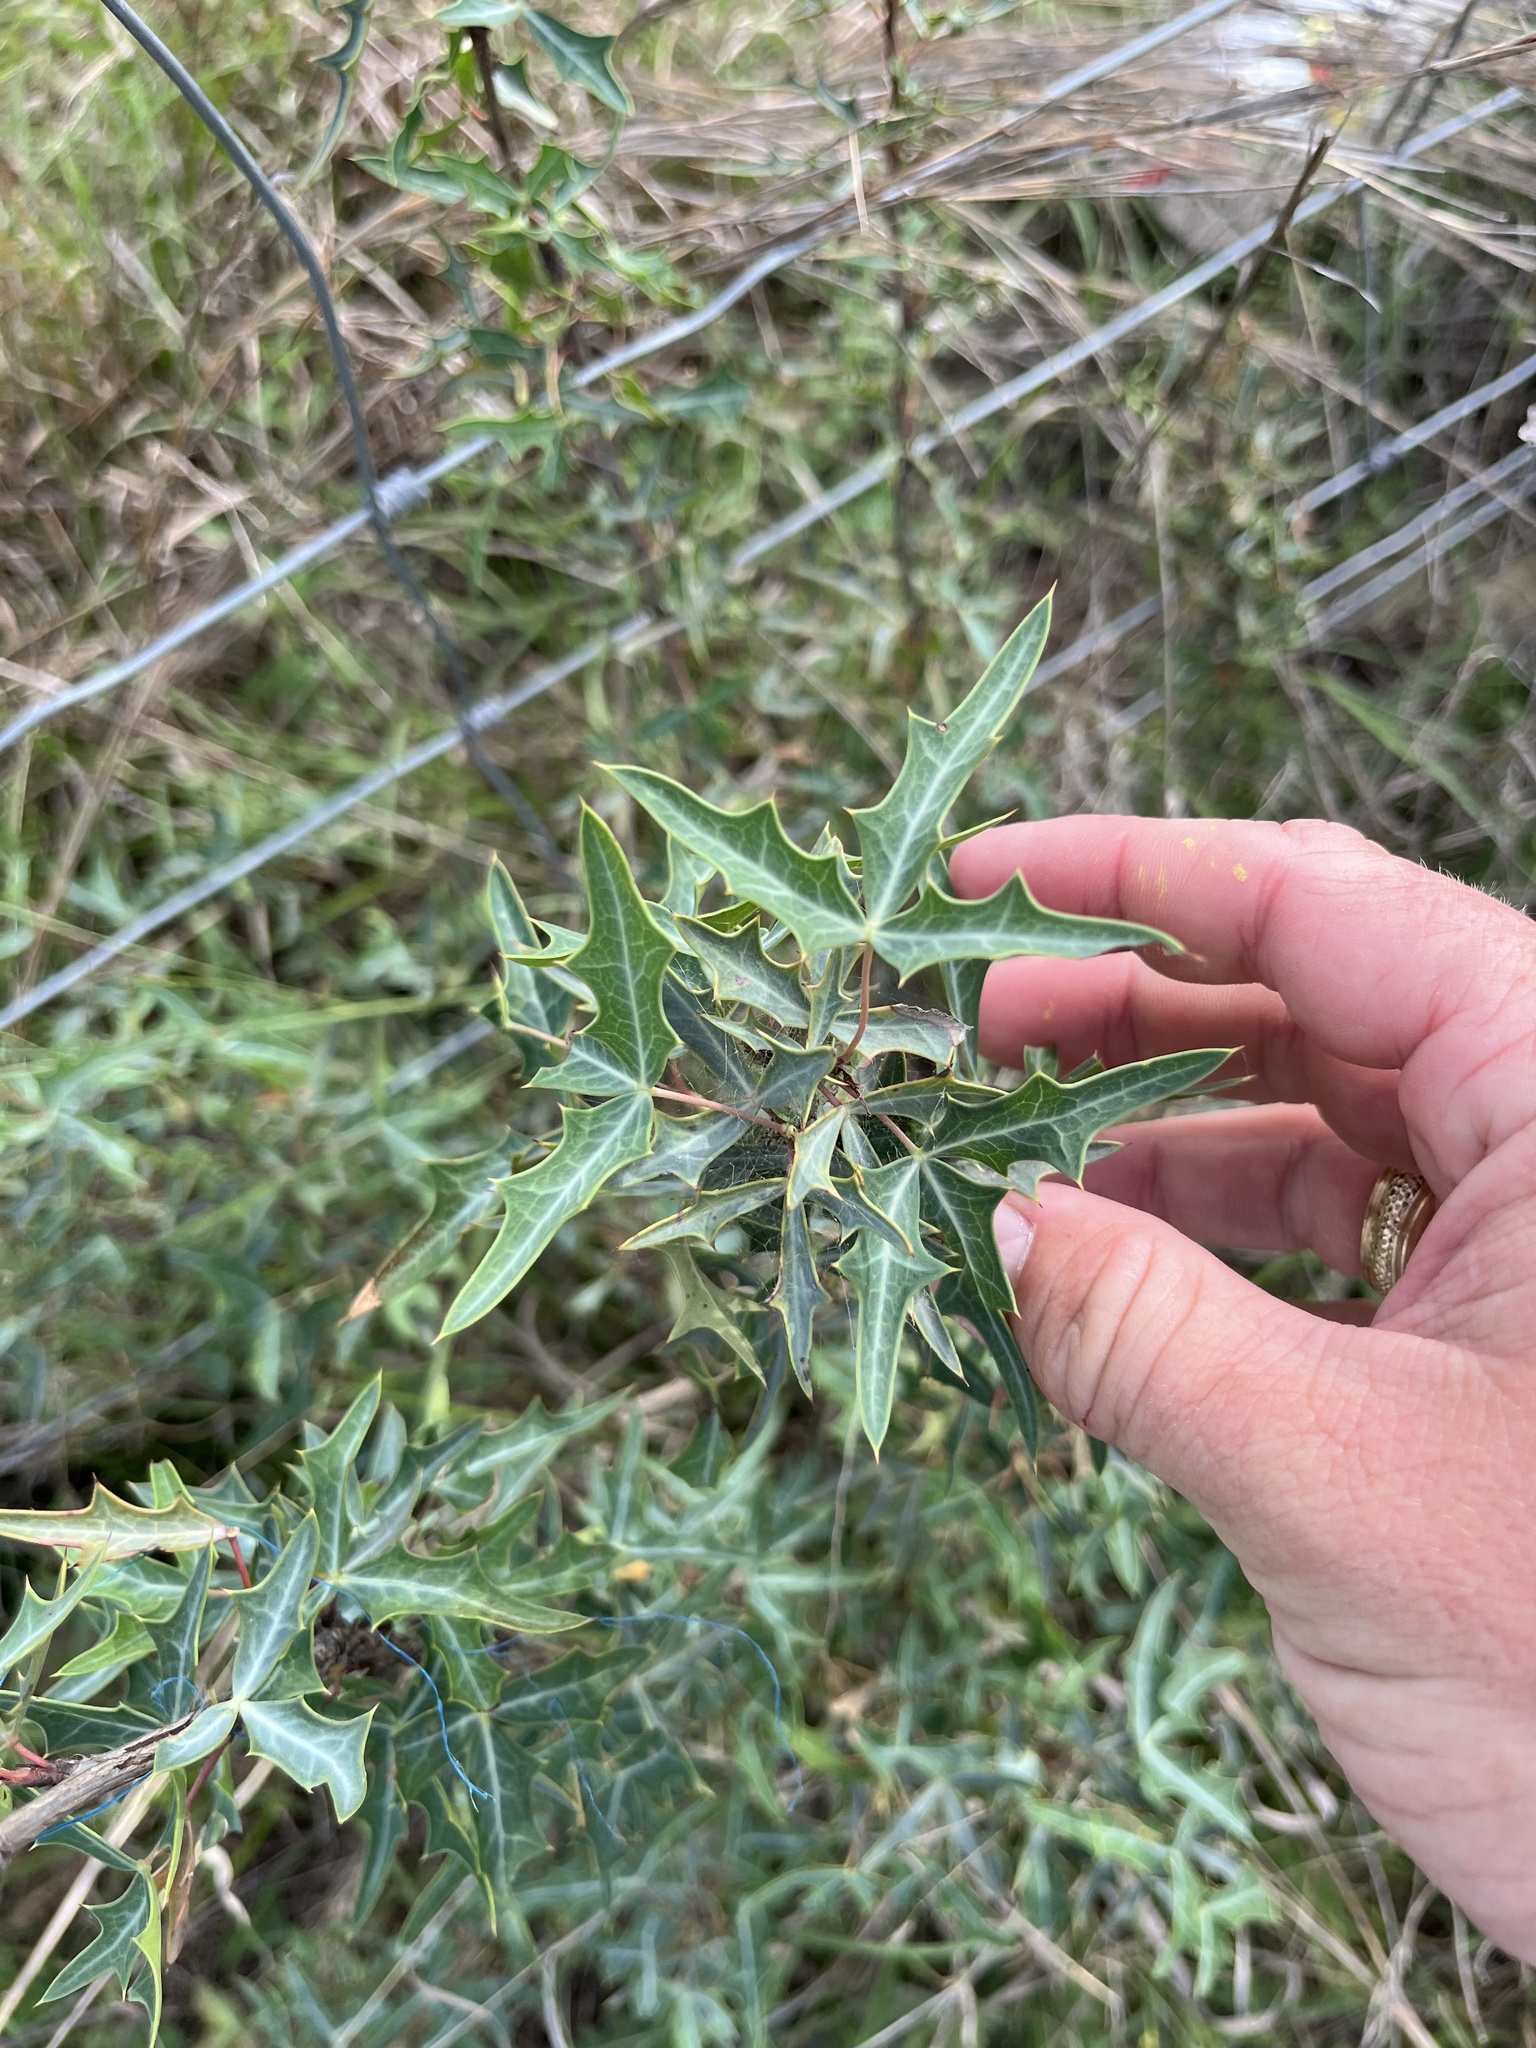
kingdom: Plantae
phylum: Tracheophyta
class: Magnoliopsida
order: Ranunculales
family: Berberidaceae
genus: Alloberberis
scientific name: Alloberberis trifoliolata
